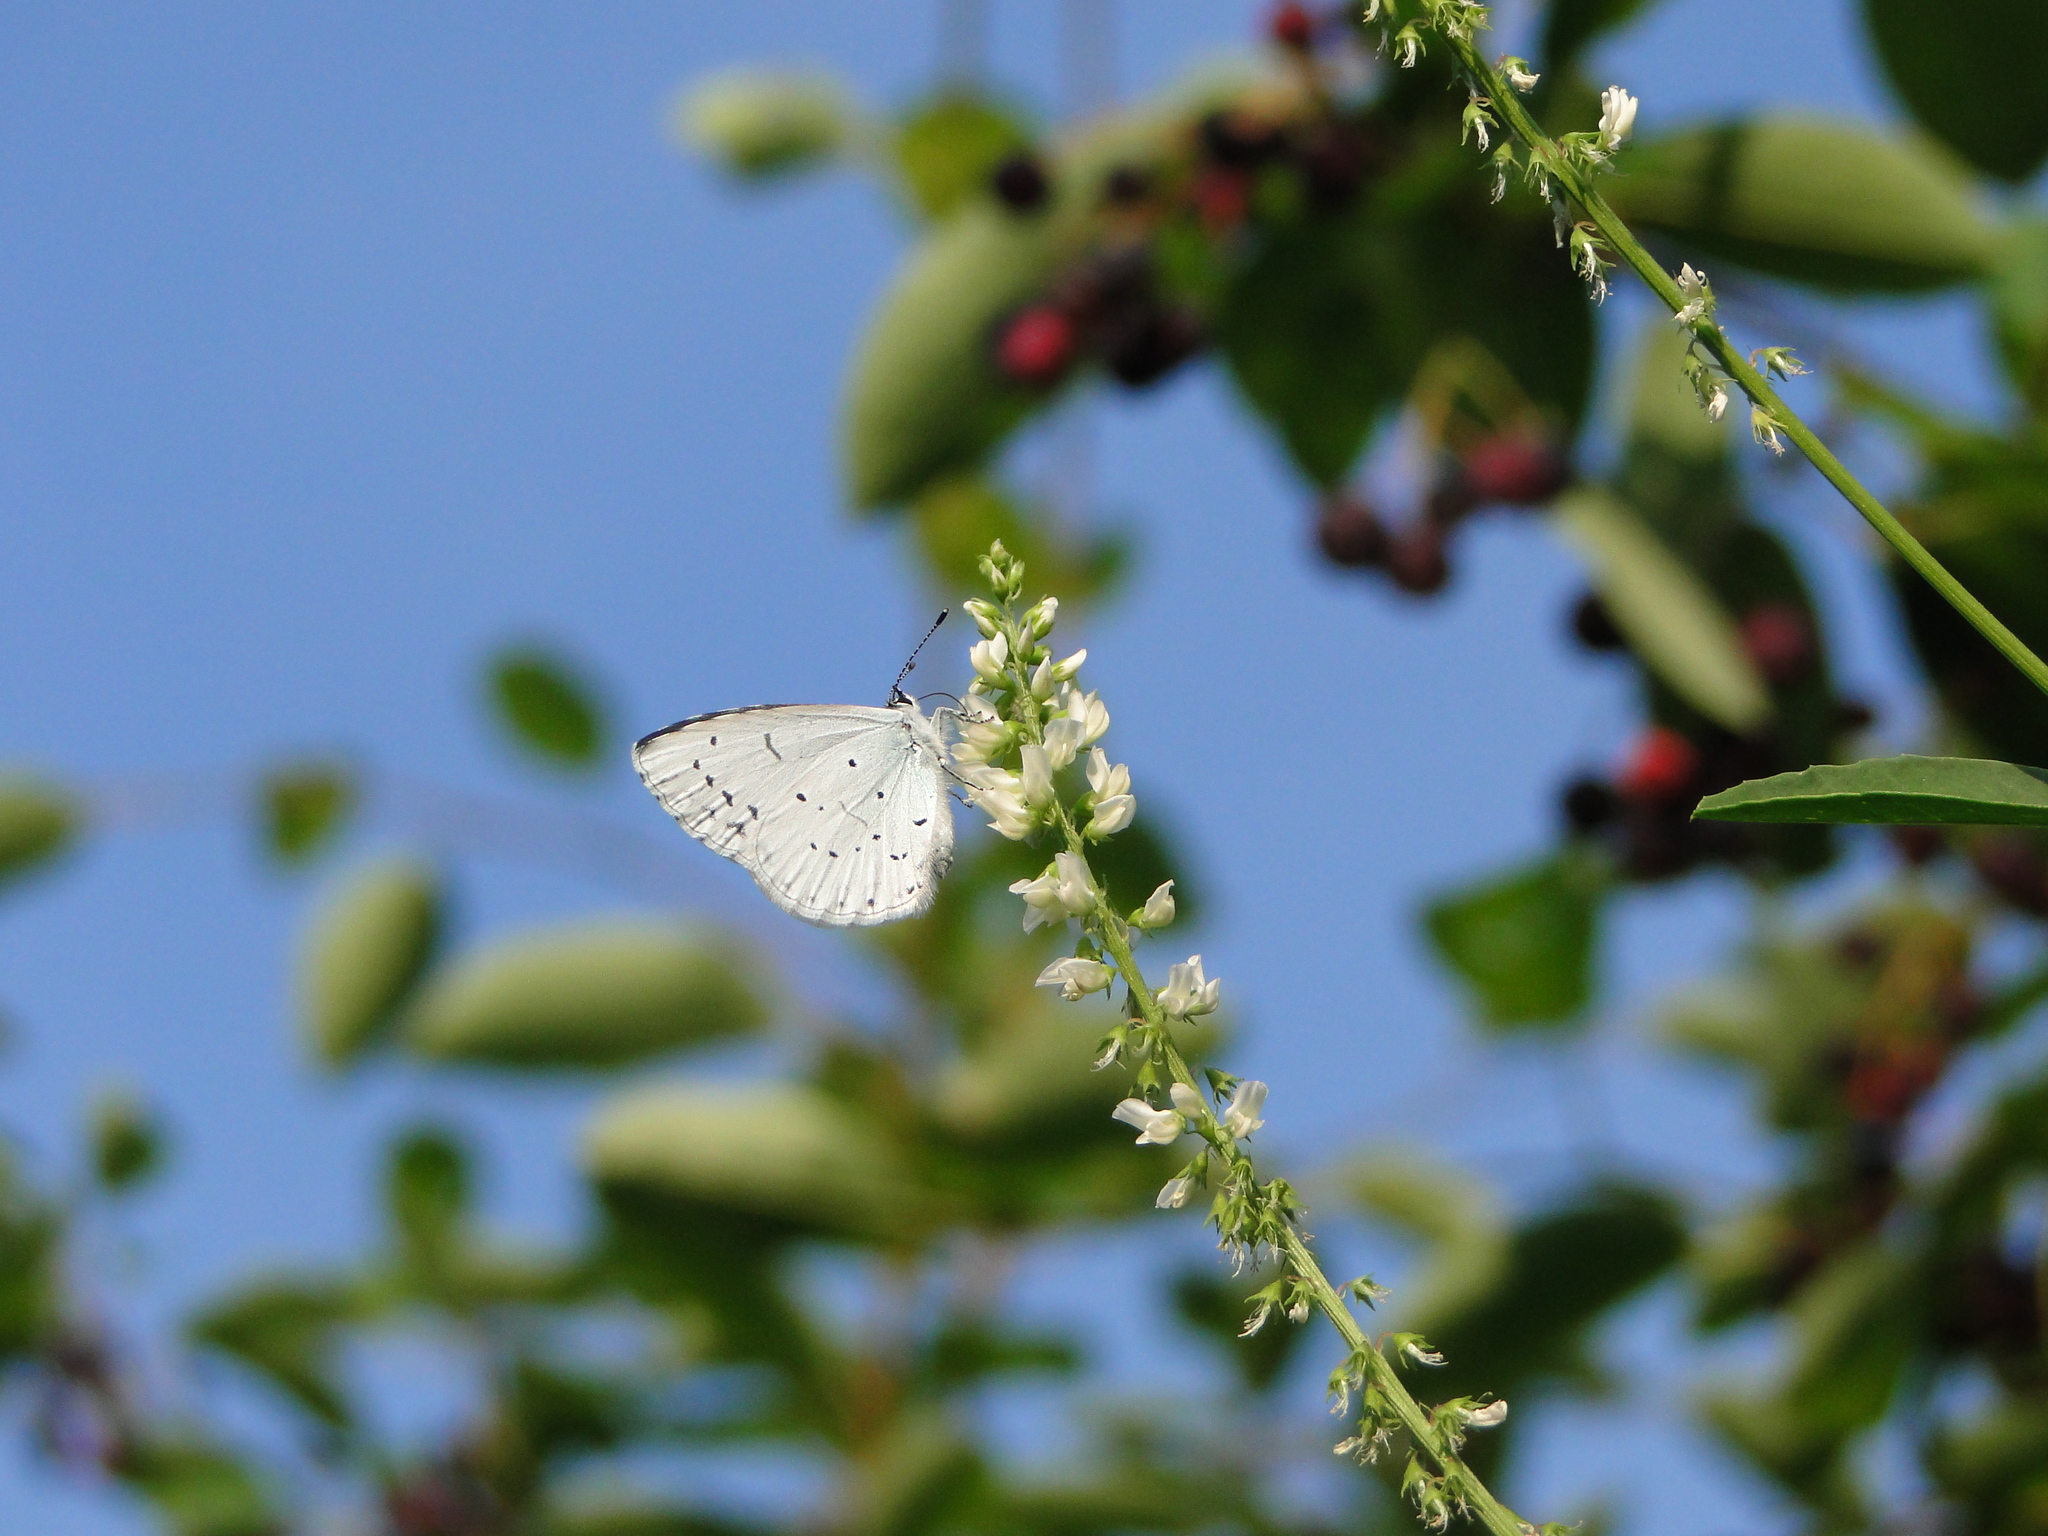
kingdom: Animalia
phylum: Arthropoda
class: Insecta
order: Lepidoptera
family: Lycaenidae
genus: Celastrina
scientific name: Celastrina argiolus
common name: Holly blue
